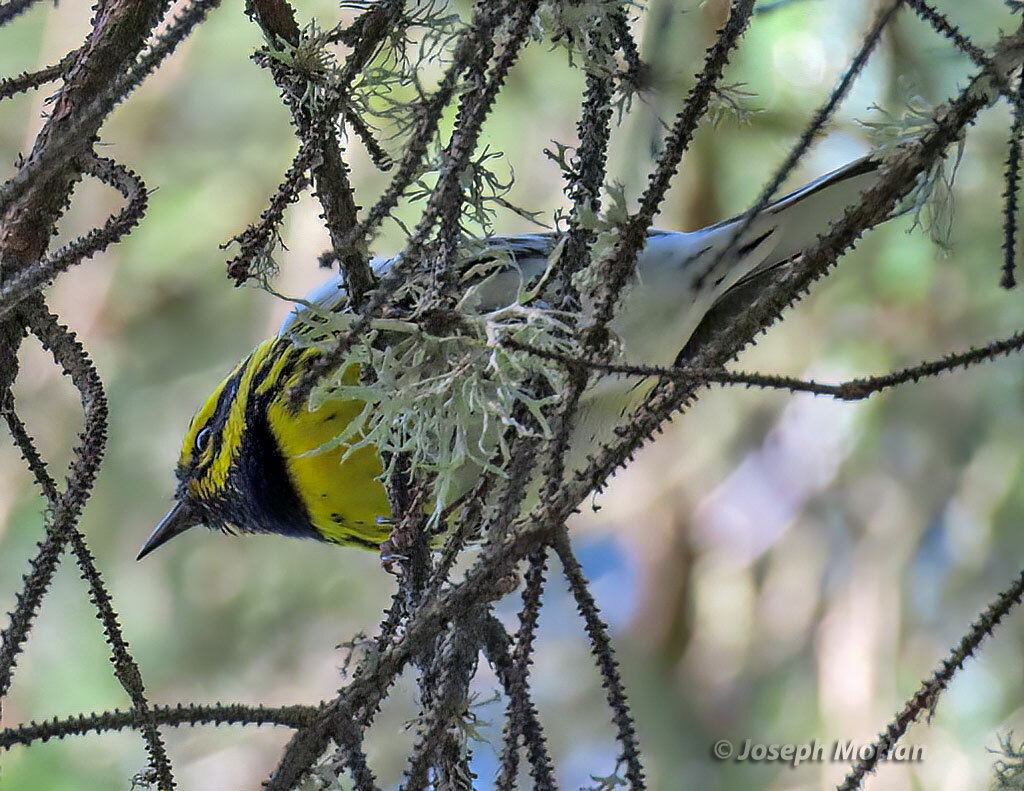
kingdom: Animalia
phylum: Chordata
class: Aves
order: Passeriformes
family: Parulidae
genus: Setophaga
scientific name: Setophaga townsendi
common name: Townsend's warbler
